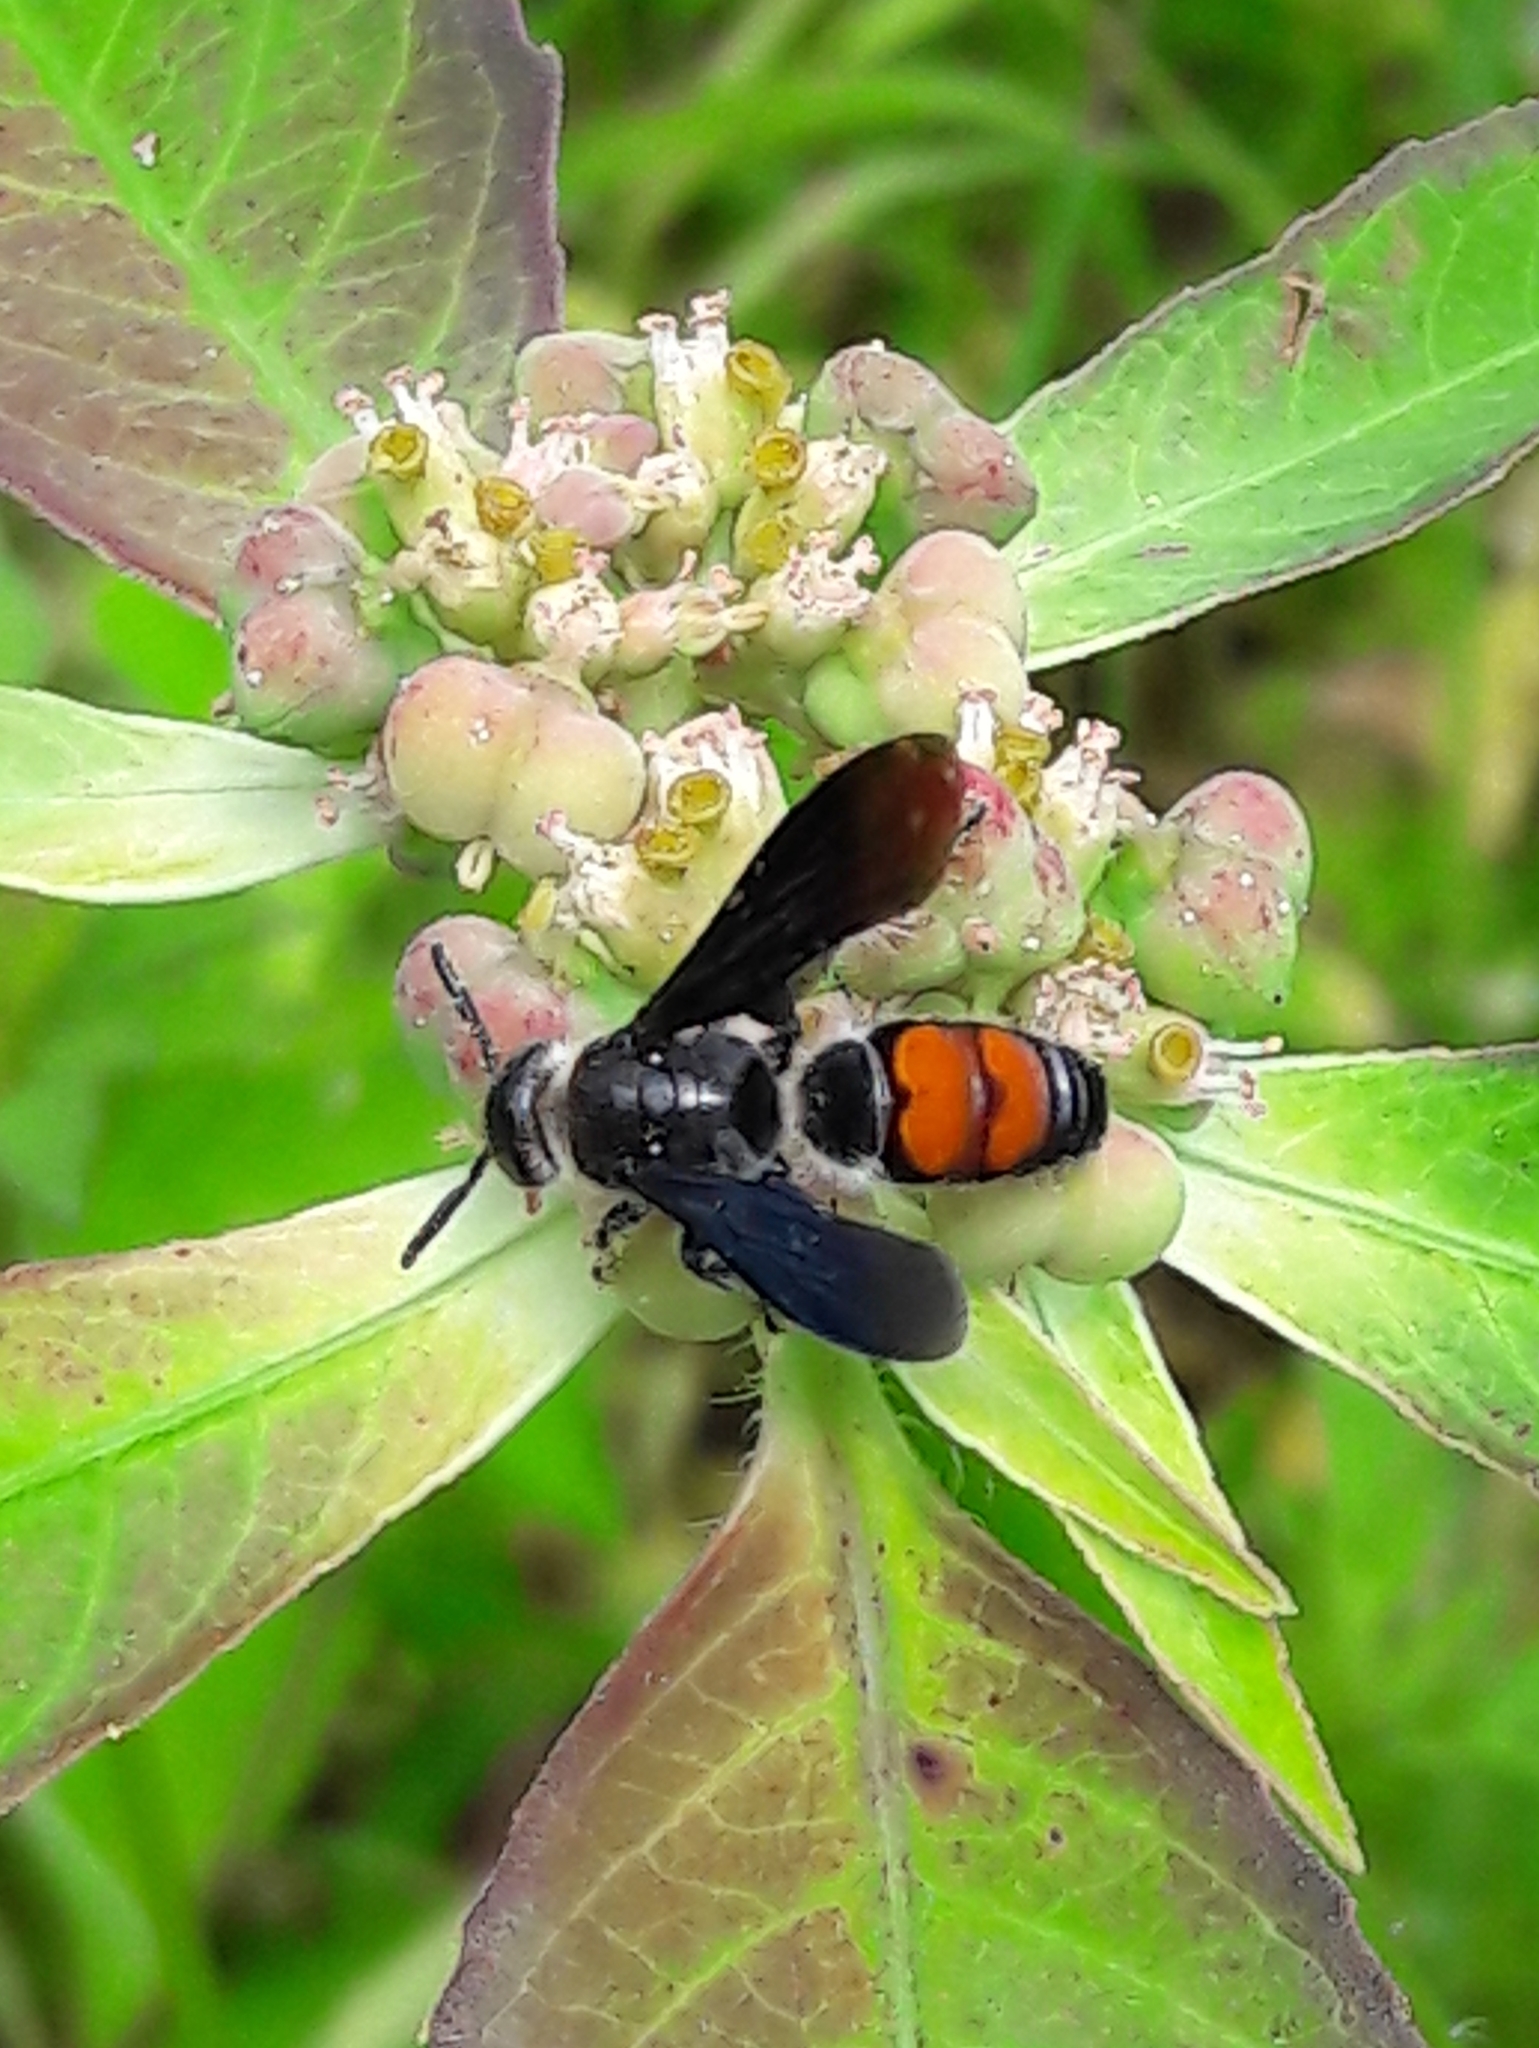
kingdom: Animalia
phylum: Arthropoda
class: Insecta
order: Hymenoptera
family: Scoliidae
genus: Dielis
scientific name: Dielis dorsata
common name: Scoliid wasp
